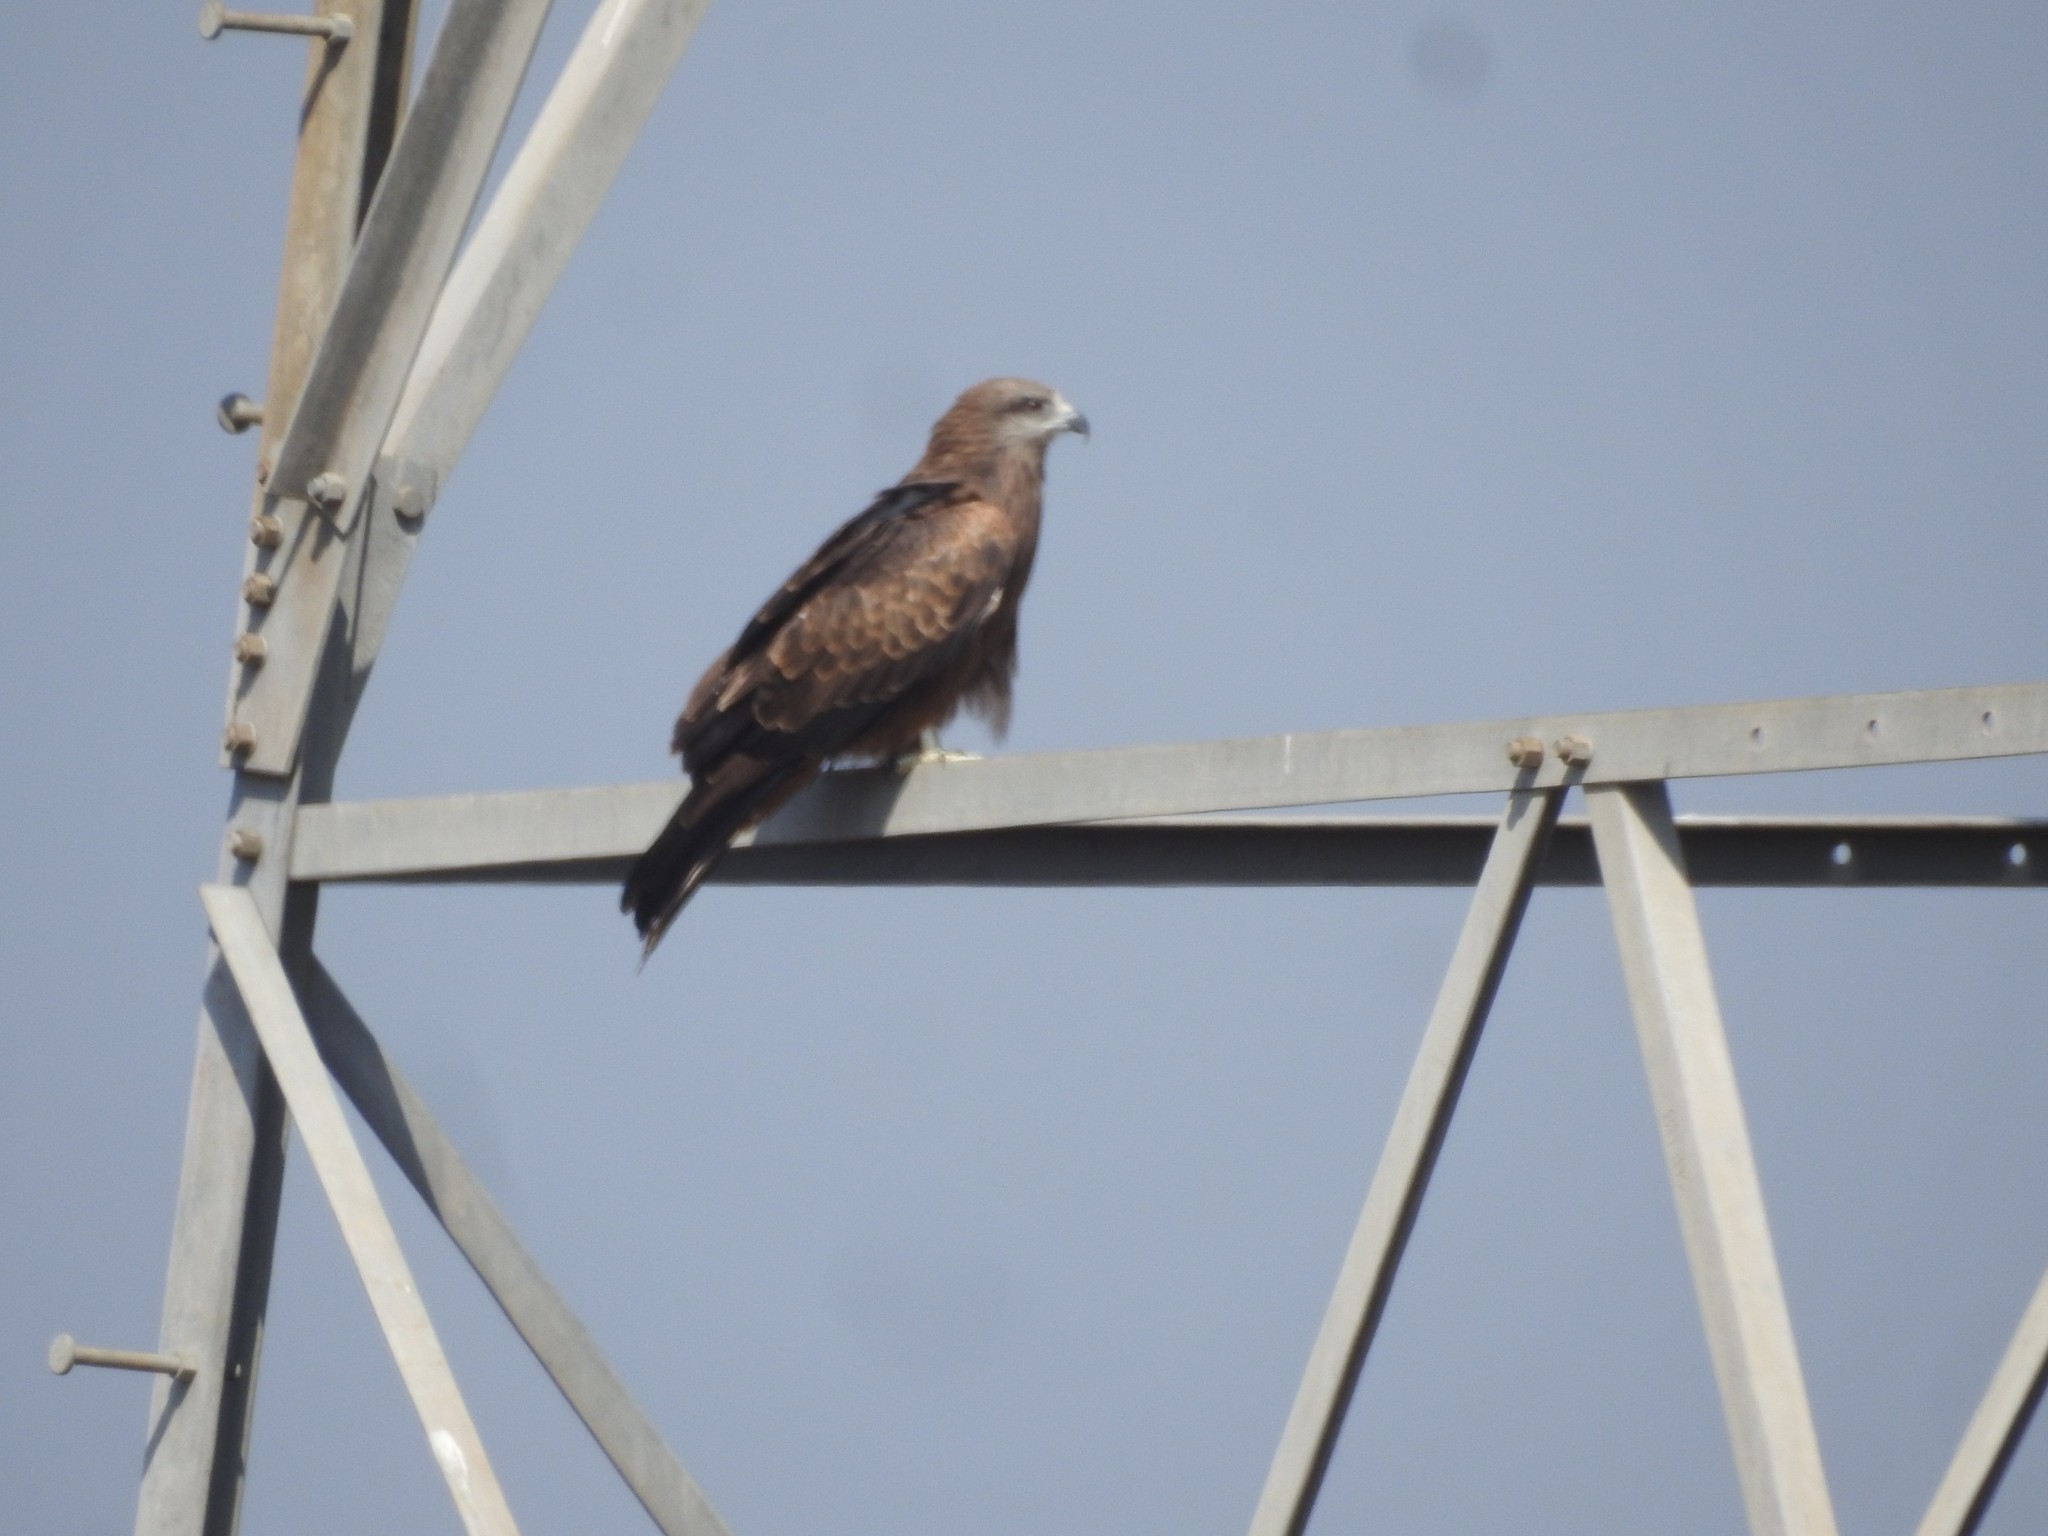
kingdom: Animalia
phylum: Chordata
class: Aves
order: Accipitriformes
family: Accipitridae
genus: Milvus
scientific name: Milvus migrans
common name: Black kite
